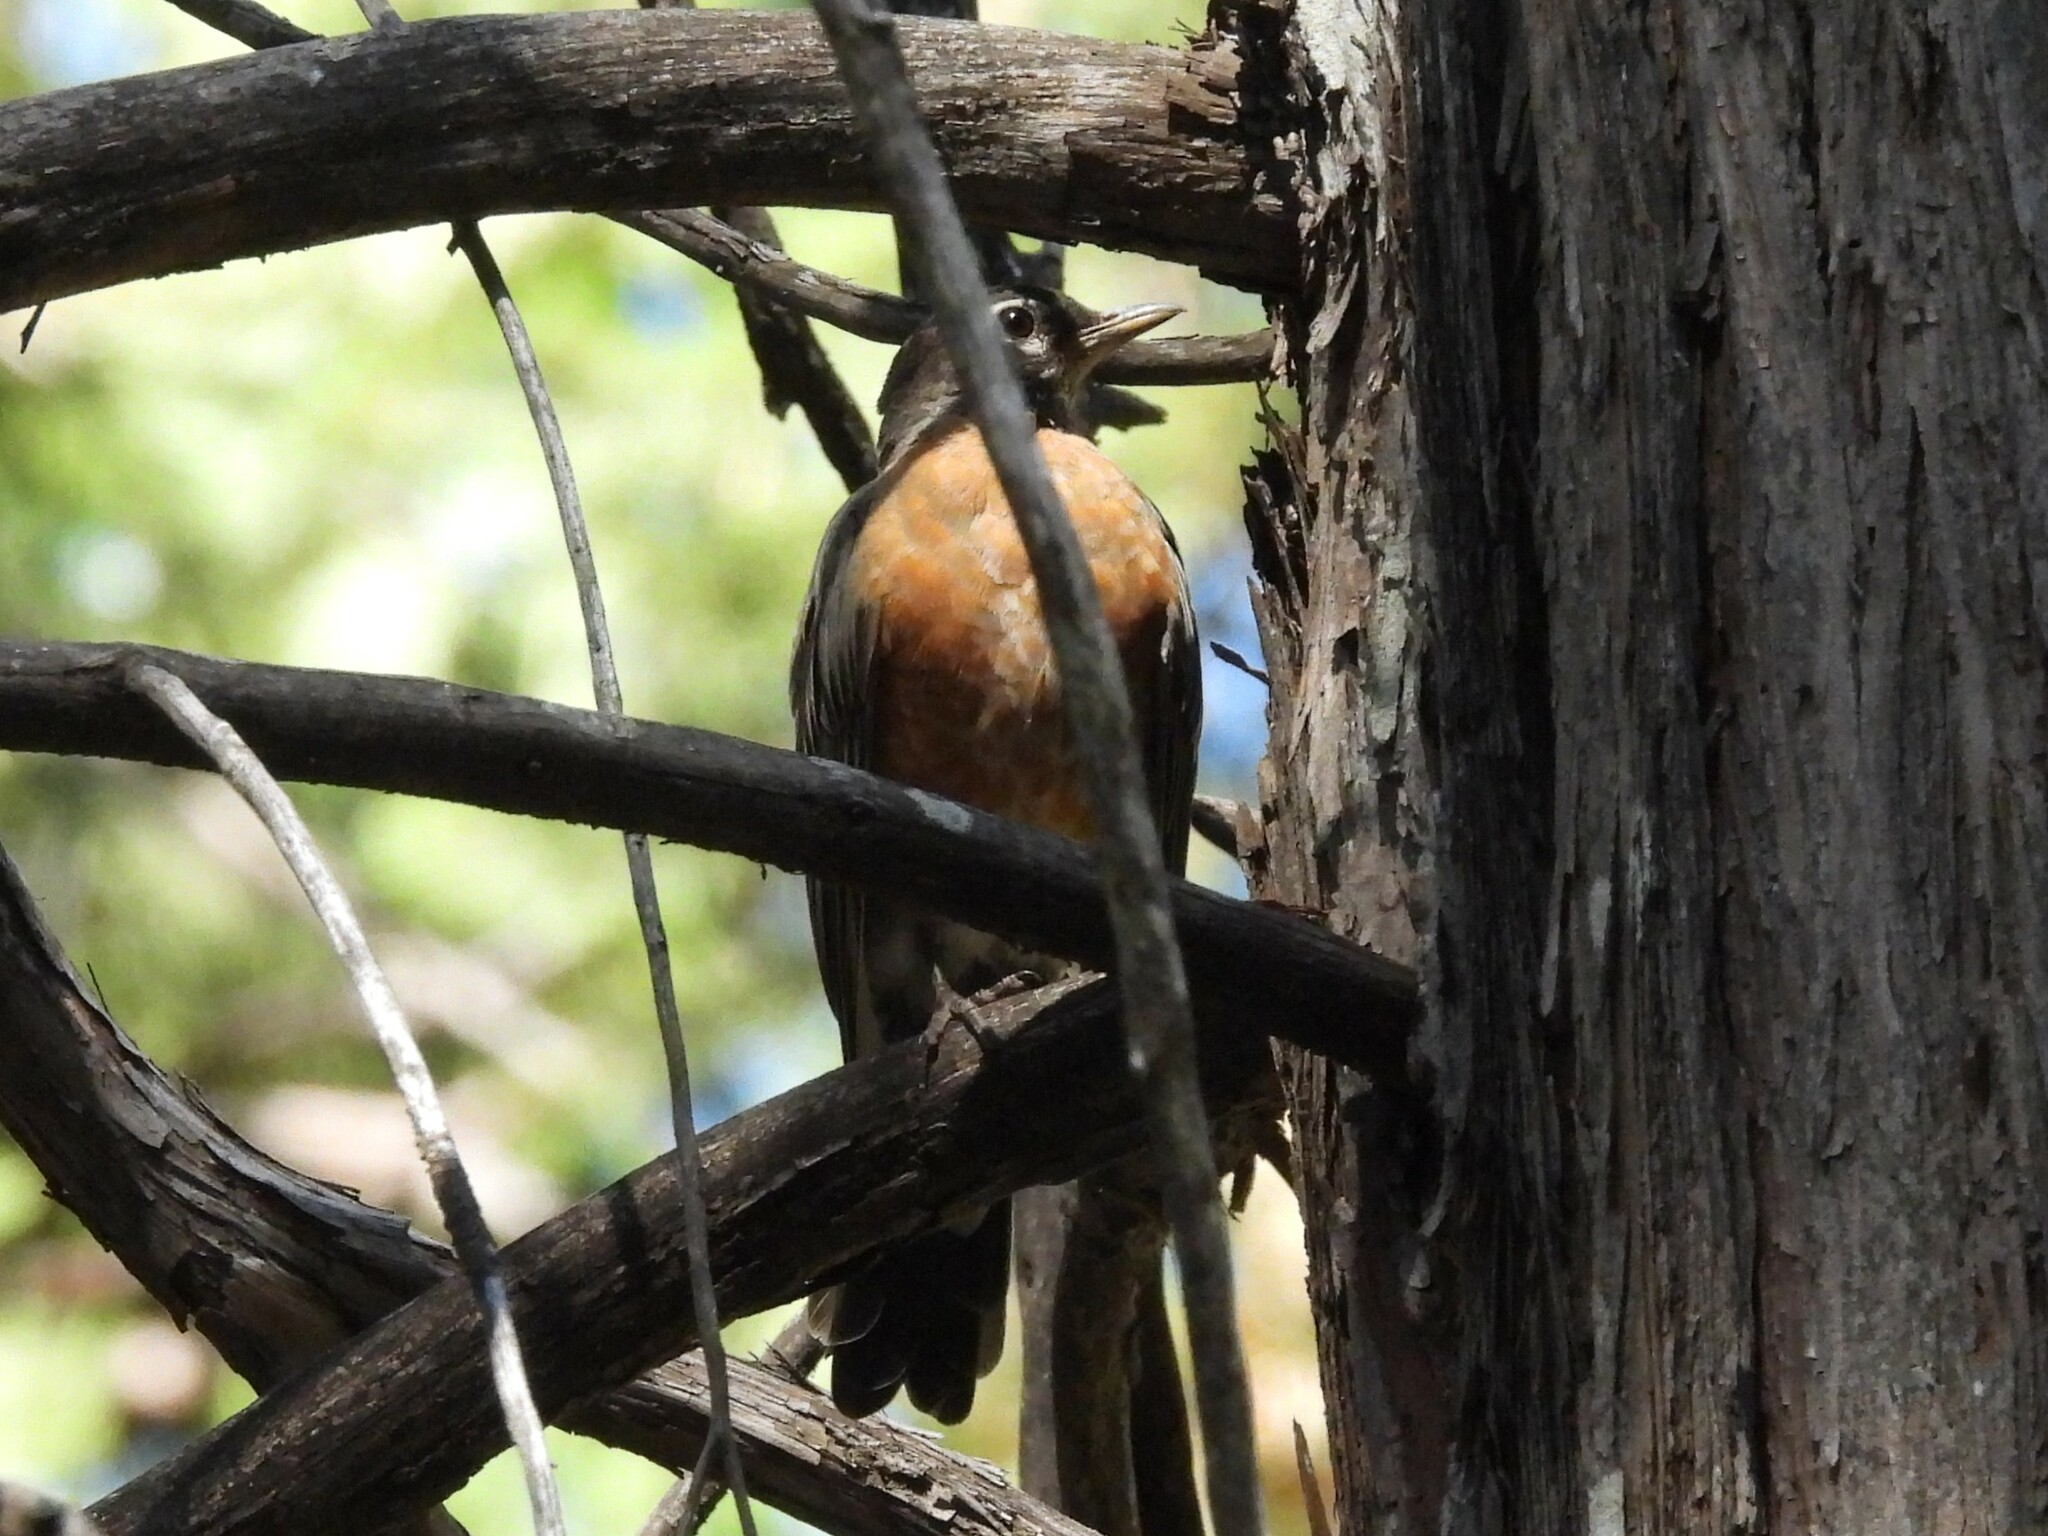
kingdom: Animalia
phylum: Chordata
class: Aves
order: Passeriformes
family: Turdidae
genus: Turdus
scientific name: Turdus migratorius
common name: American robin
